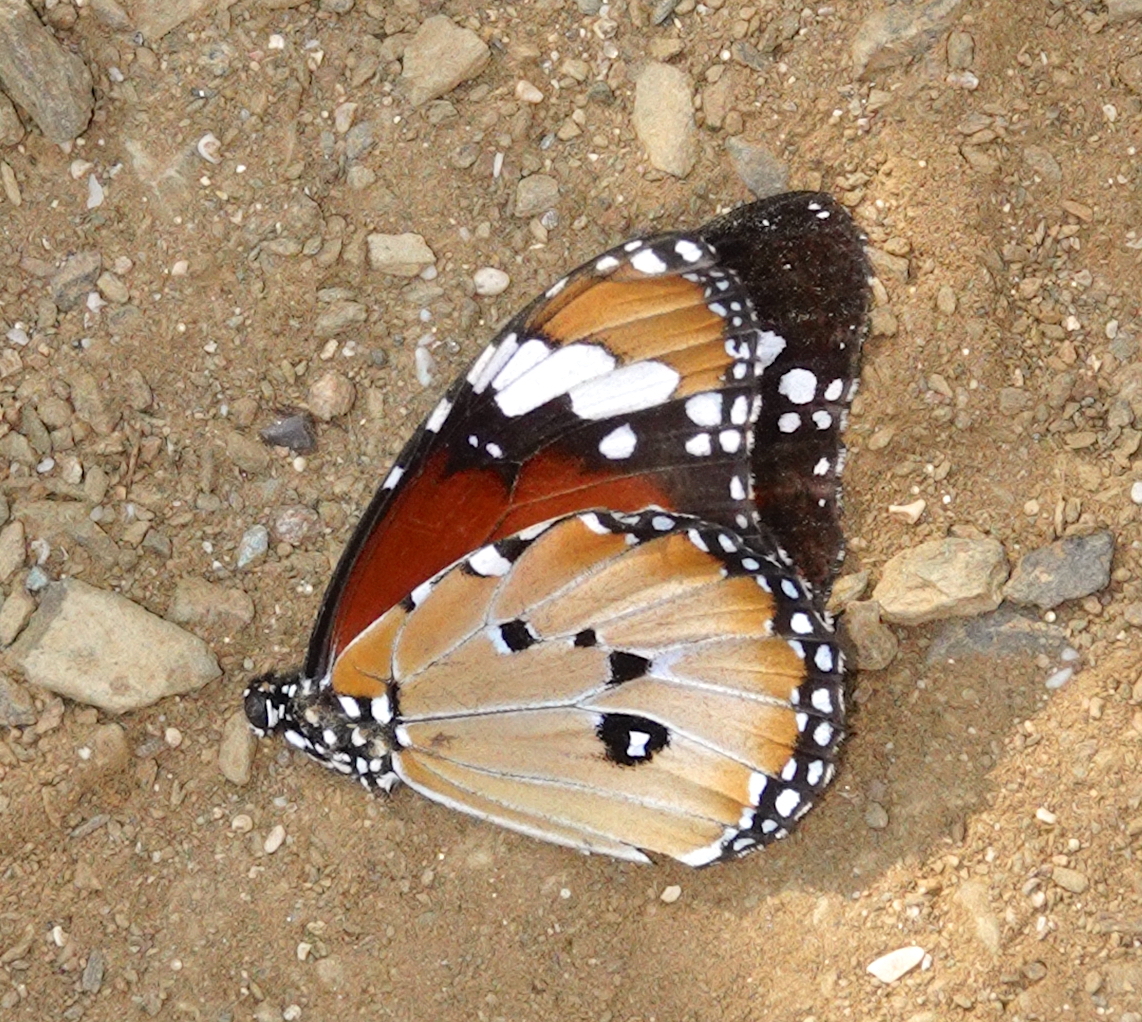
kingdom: Animalia
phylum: Arthropoda
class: Insecta
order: Lepidoptera
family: Nymphalidae
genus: Danaus
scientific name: Danaus chrysippus
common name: Plain tiger
